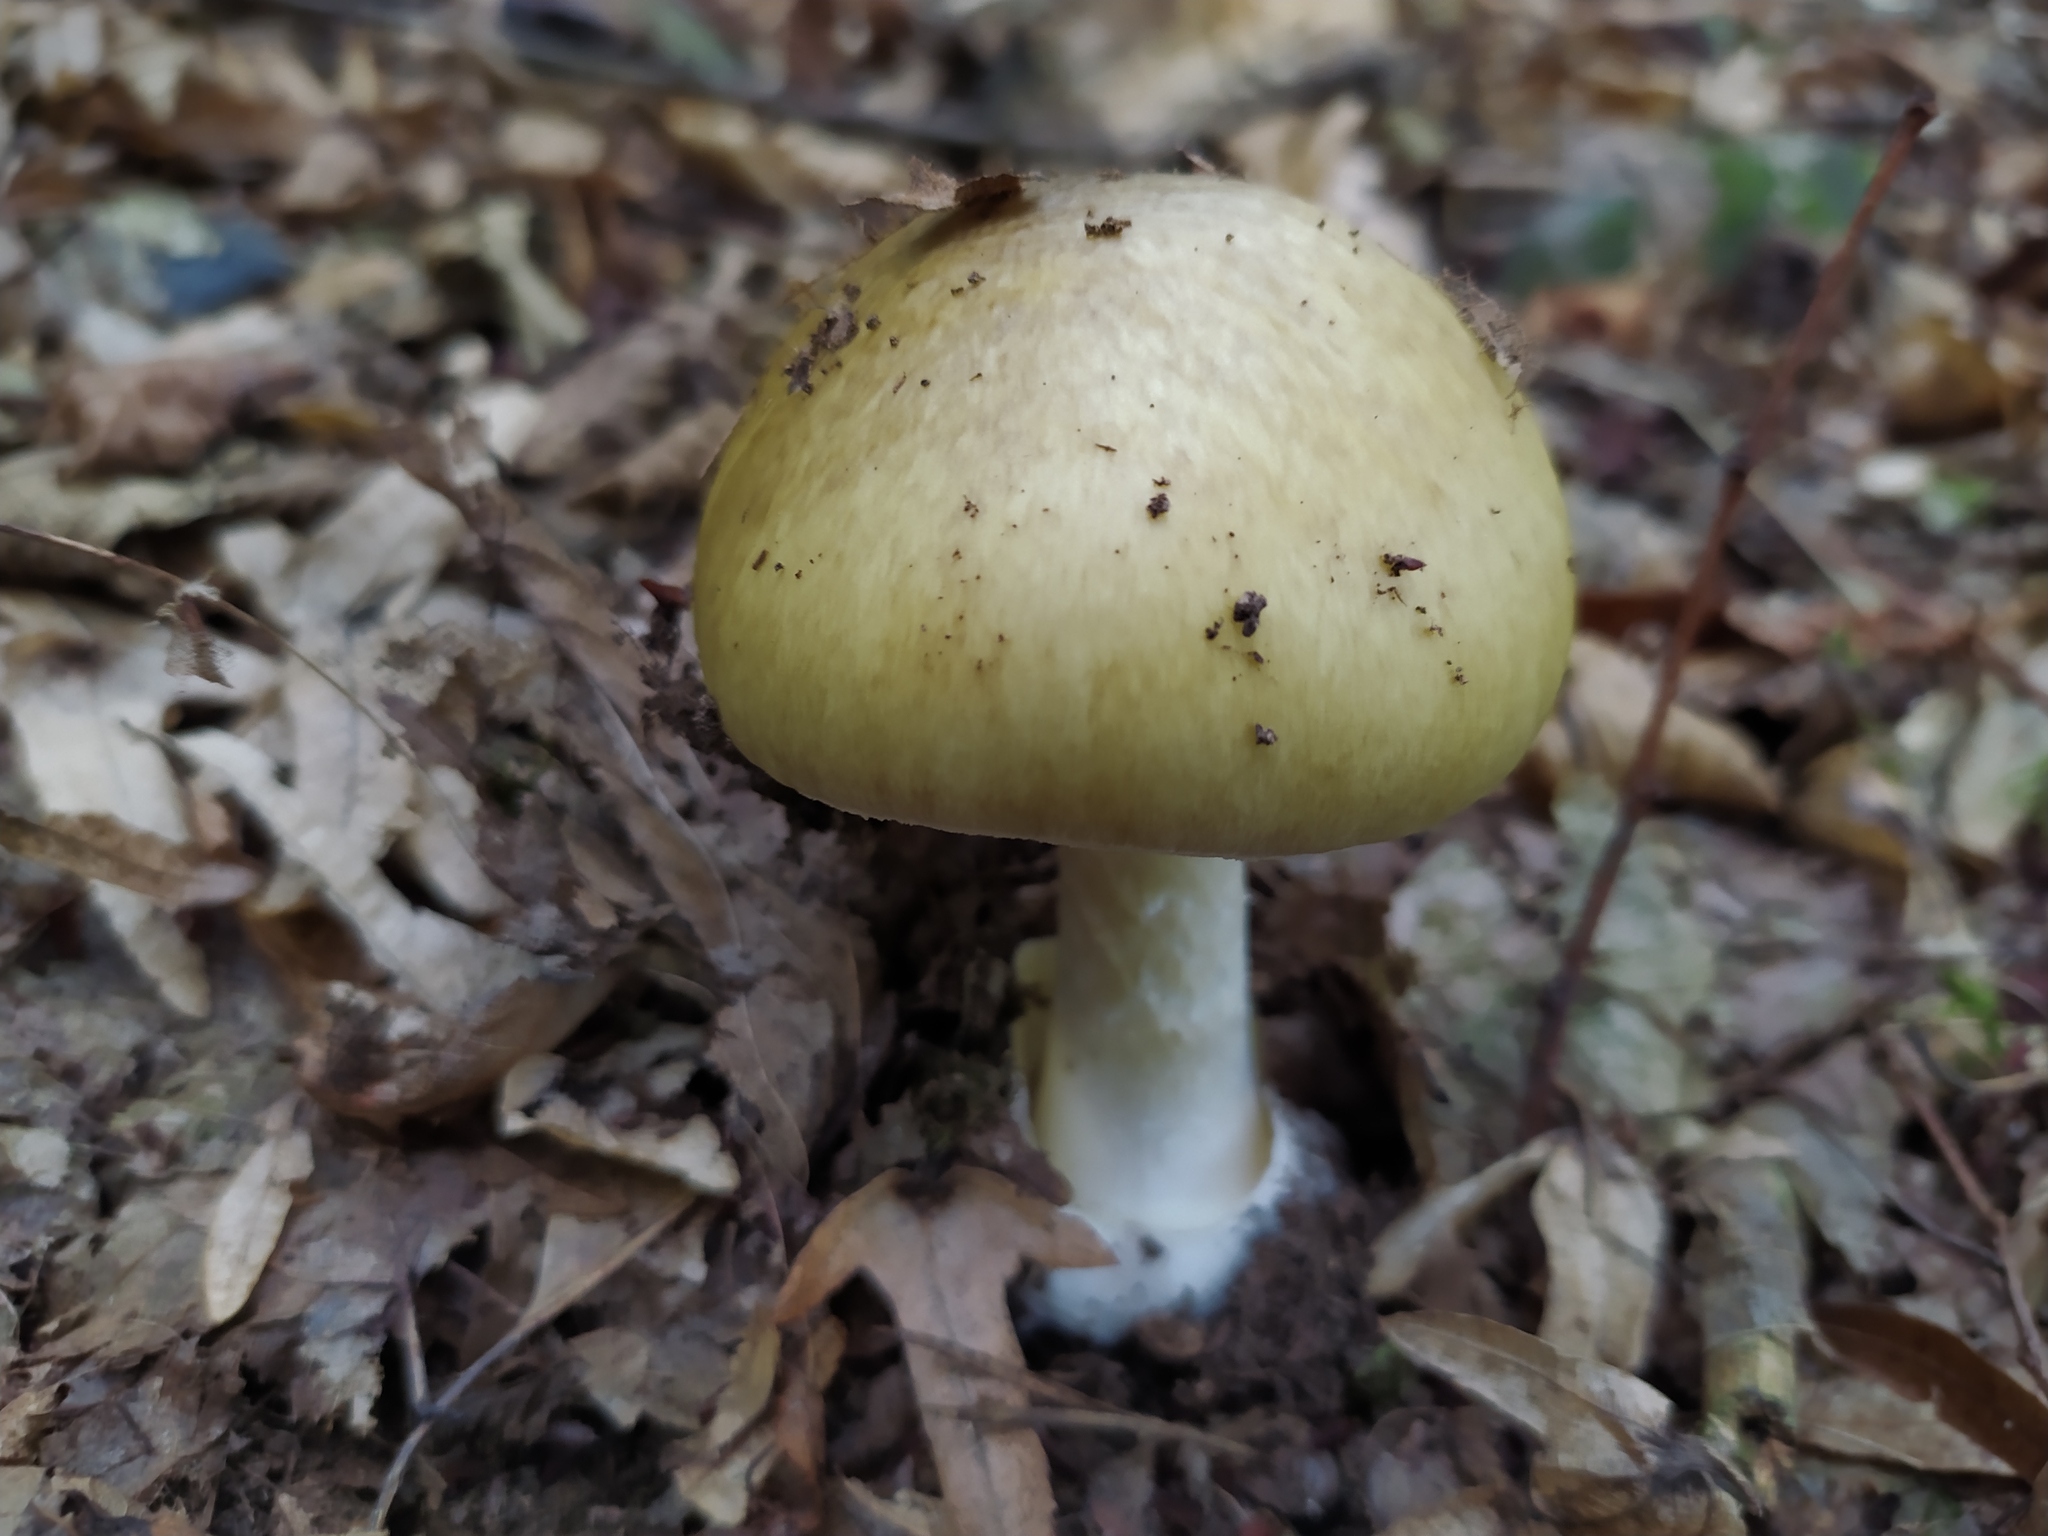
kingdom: Fungi
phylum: Basidiomycota
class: Agaricomycetes
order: Agaricales
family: Amanitaceae
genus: Amanita
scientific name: Amanita phalloides
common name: Death cap
